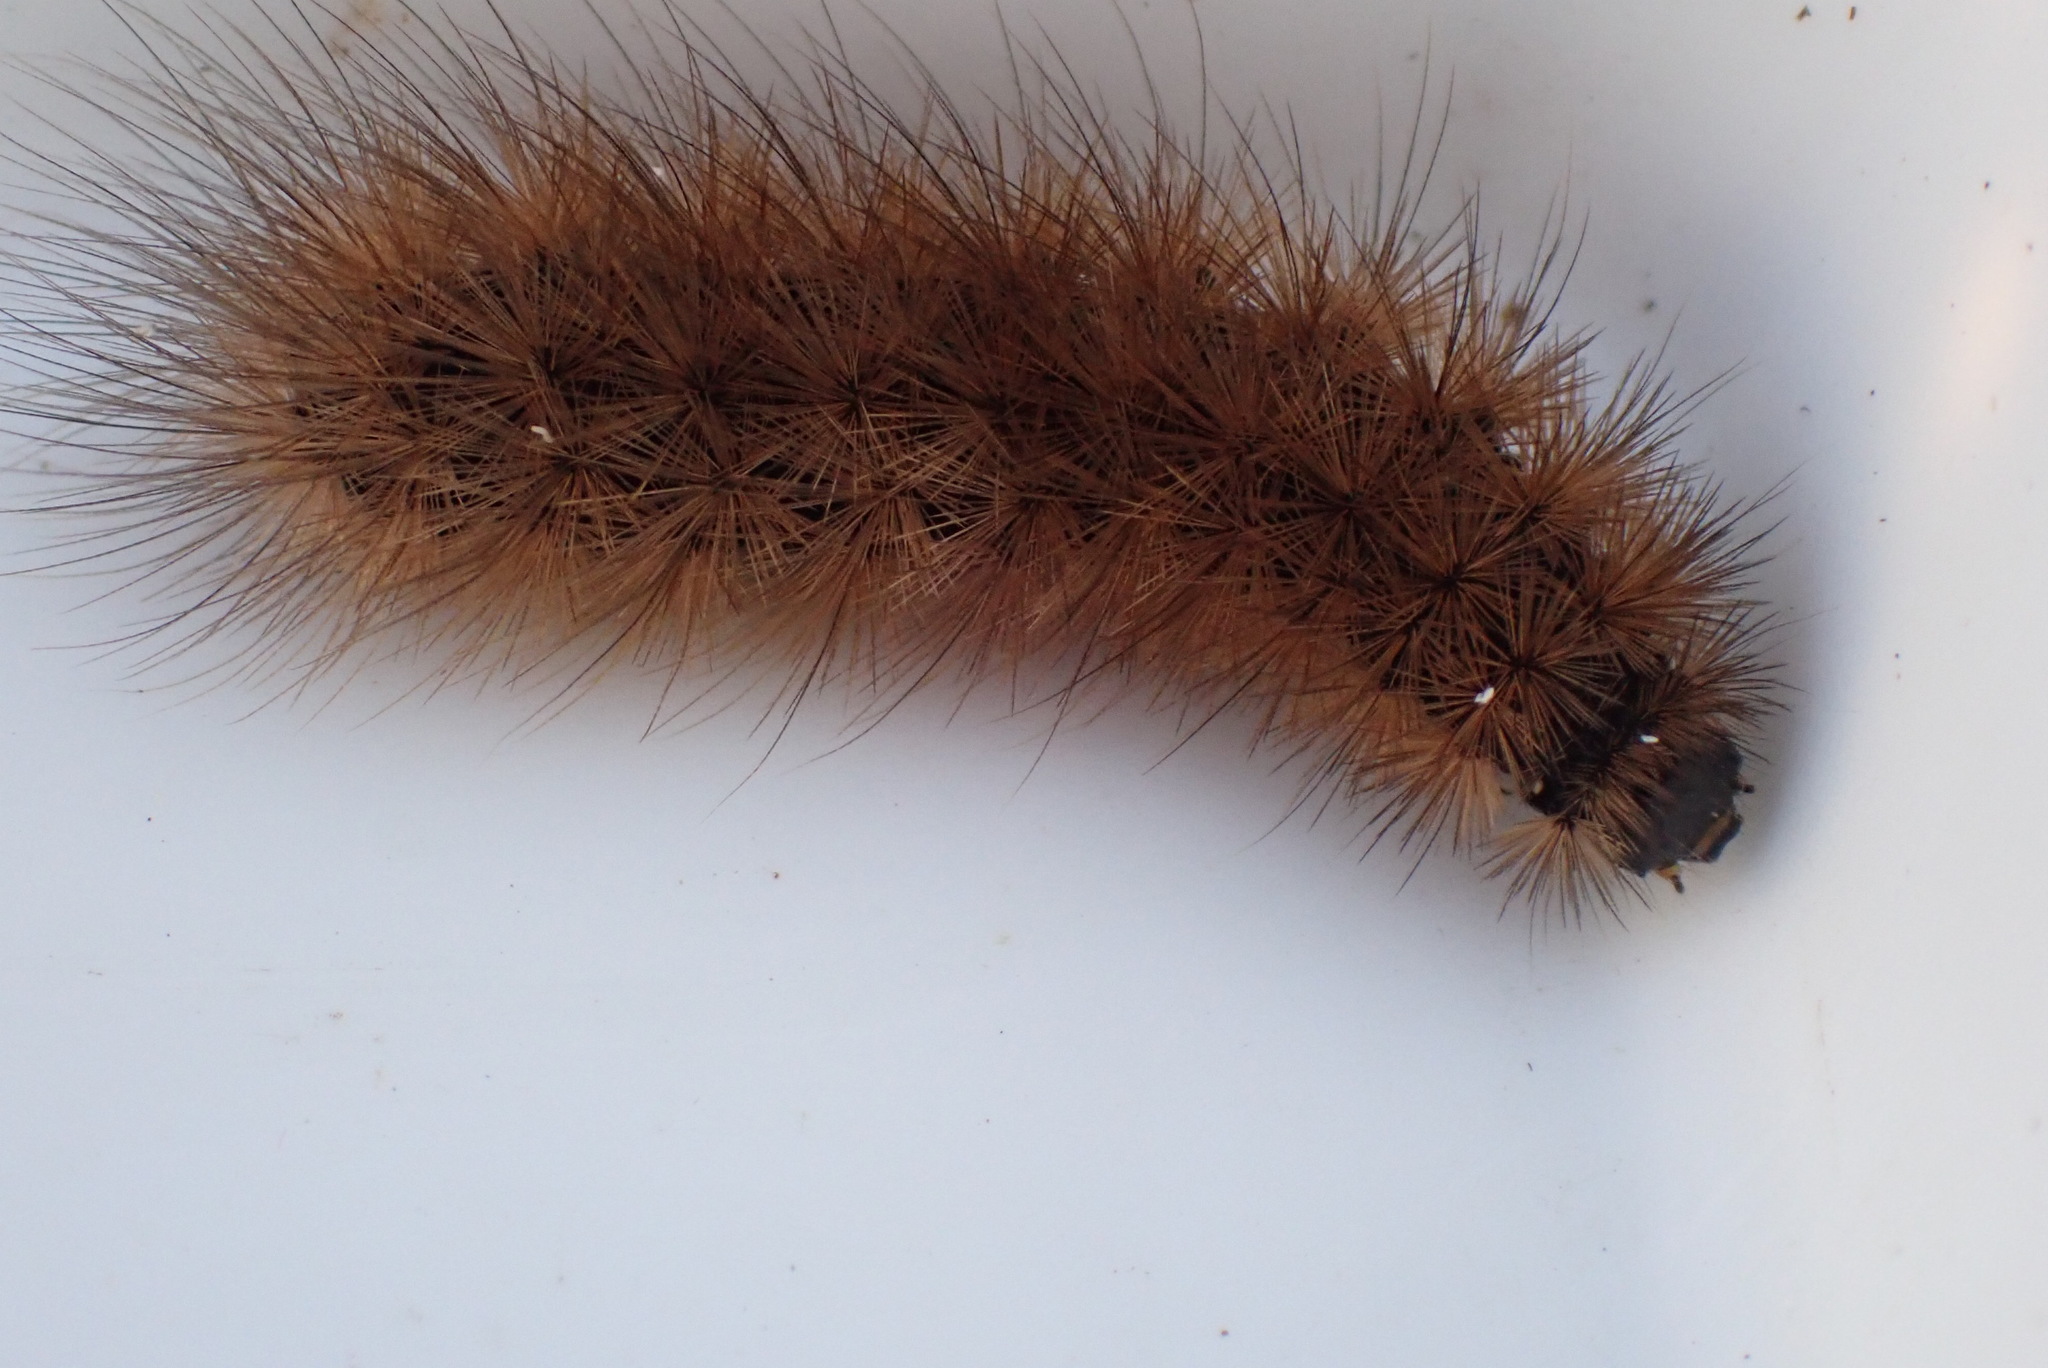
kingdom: Animalia
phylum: Arthropoda
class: Insecta
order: Lepidoptera
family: Erebidae
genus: Phragmatobia
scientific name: Phragmatobia fuliginosa
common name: Ruby tiger
